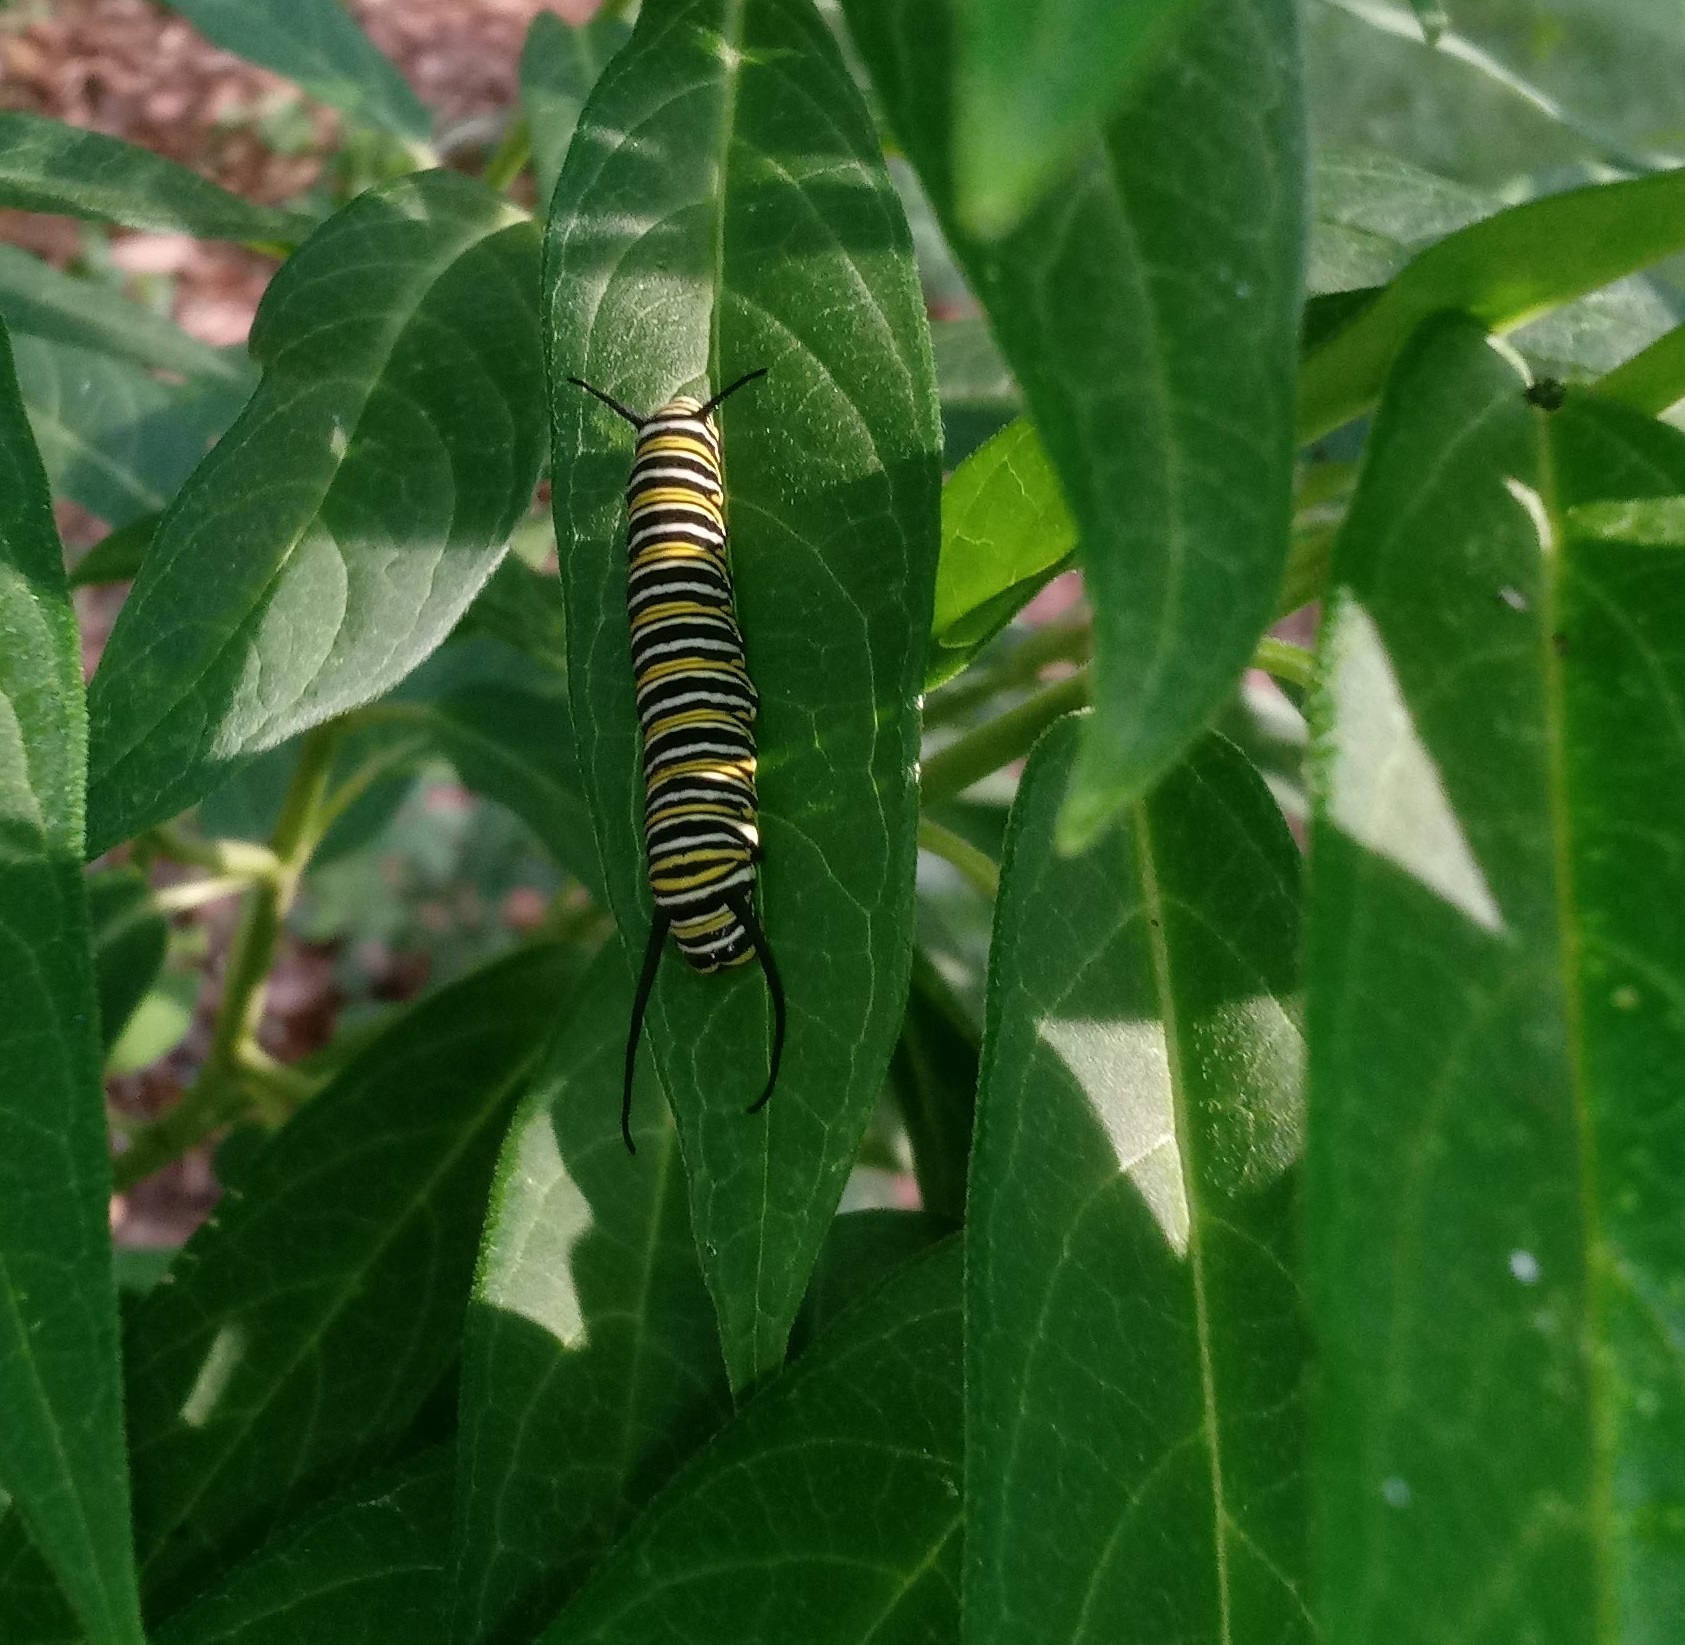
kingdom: Animalia
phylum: Arthropoda
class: Insecta
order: Lepidoptera
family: Nymphalidae
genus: Danaus
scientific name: Danaus plexippus
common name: Monarch
